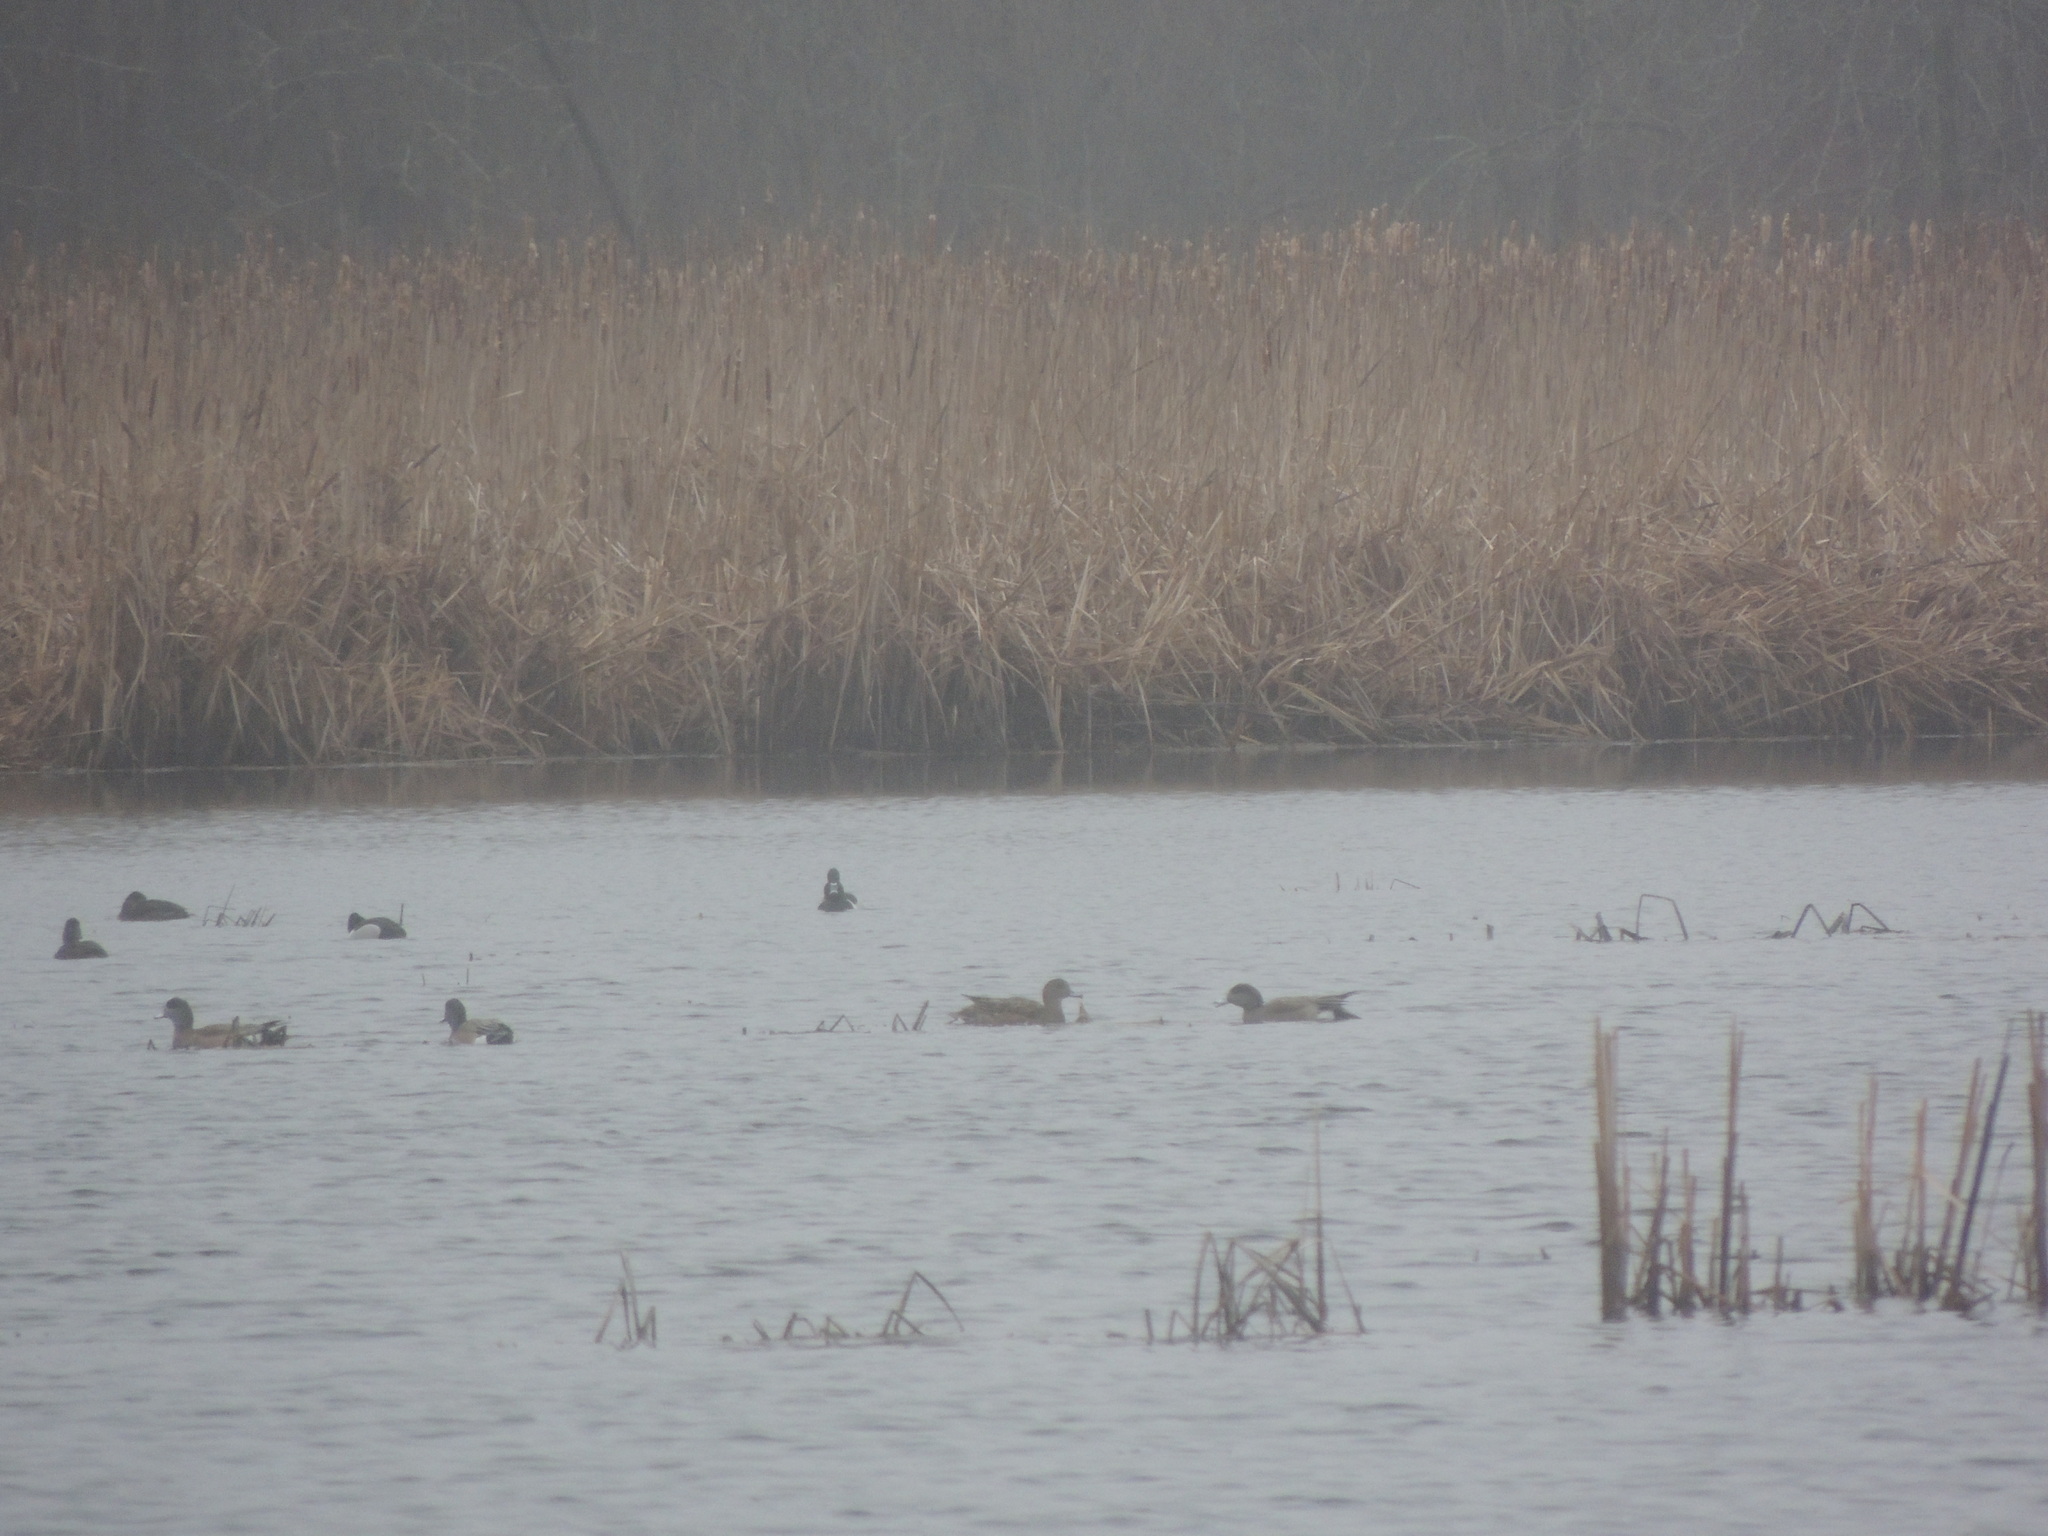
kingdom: Animalia
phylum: Chordata
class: Aves
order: Anseriformes
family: Anatidae
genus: Mareca
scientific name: Mareca americana
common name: American wigeon
